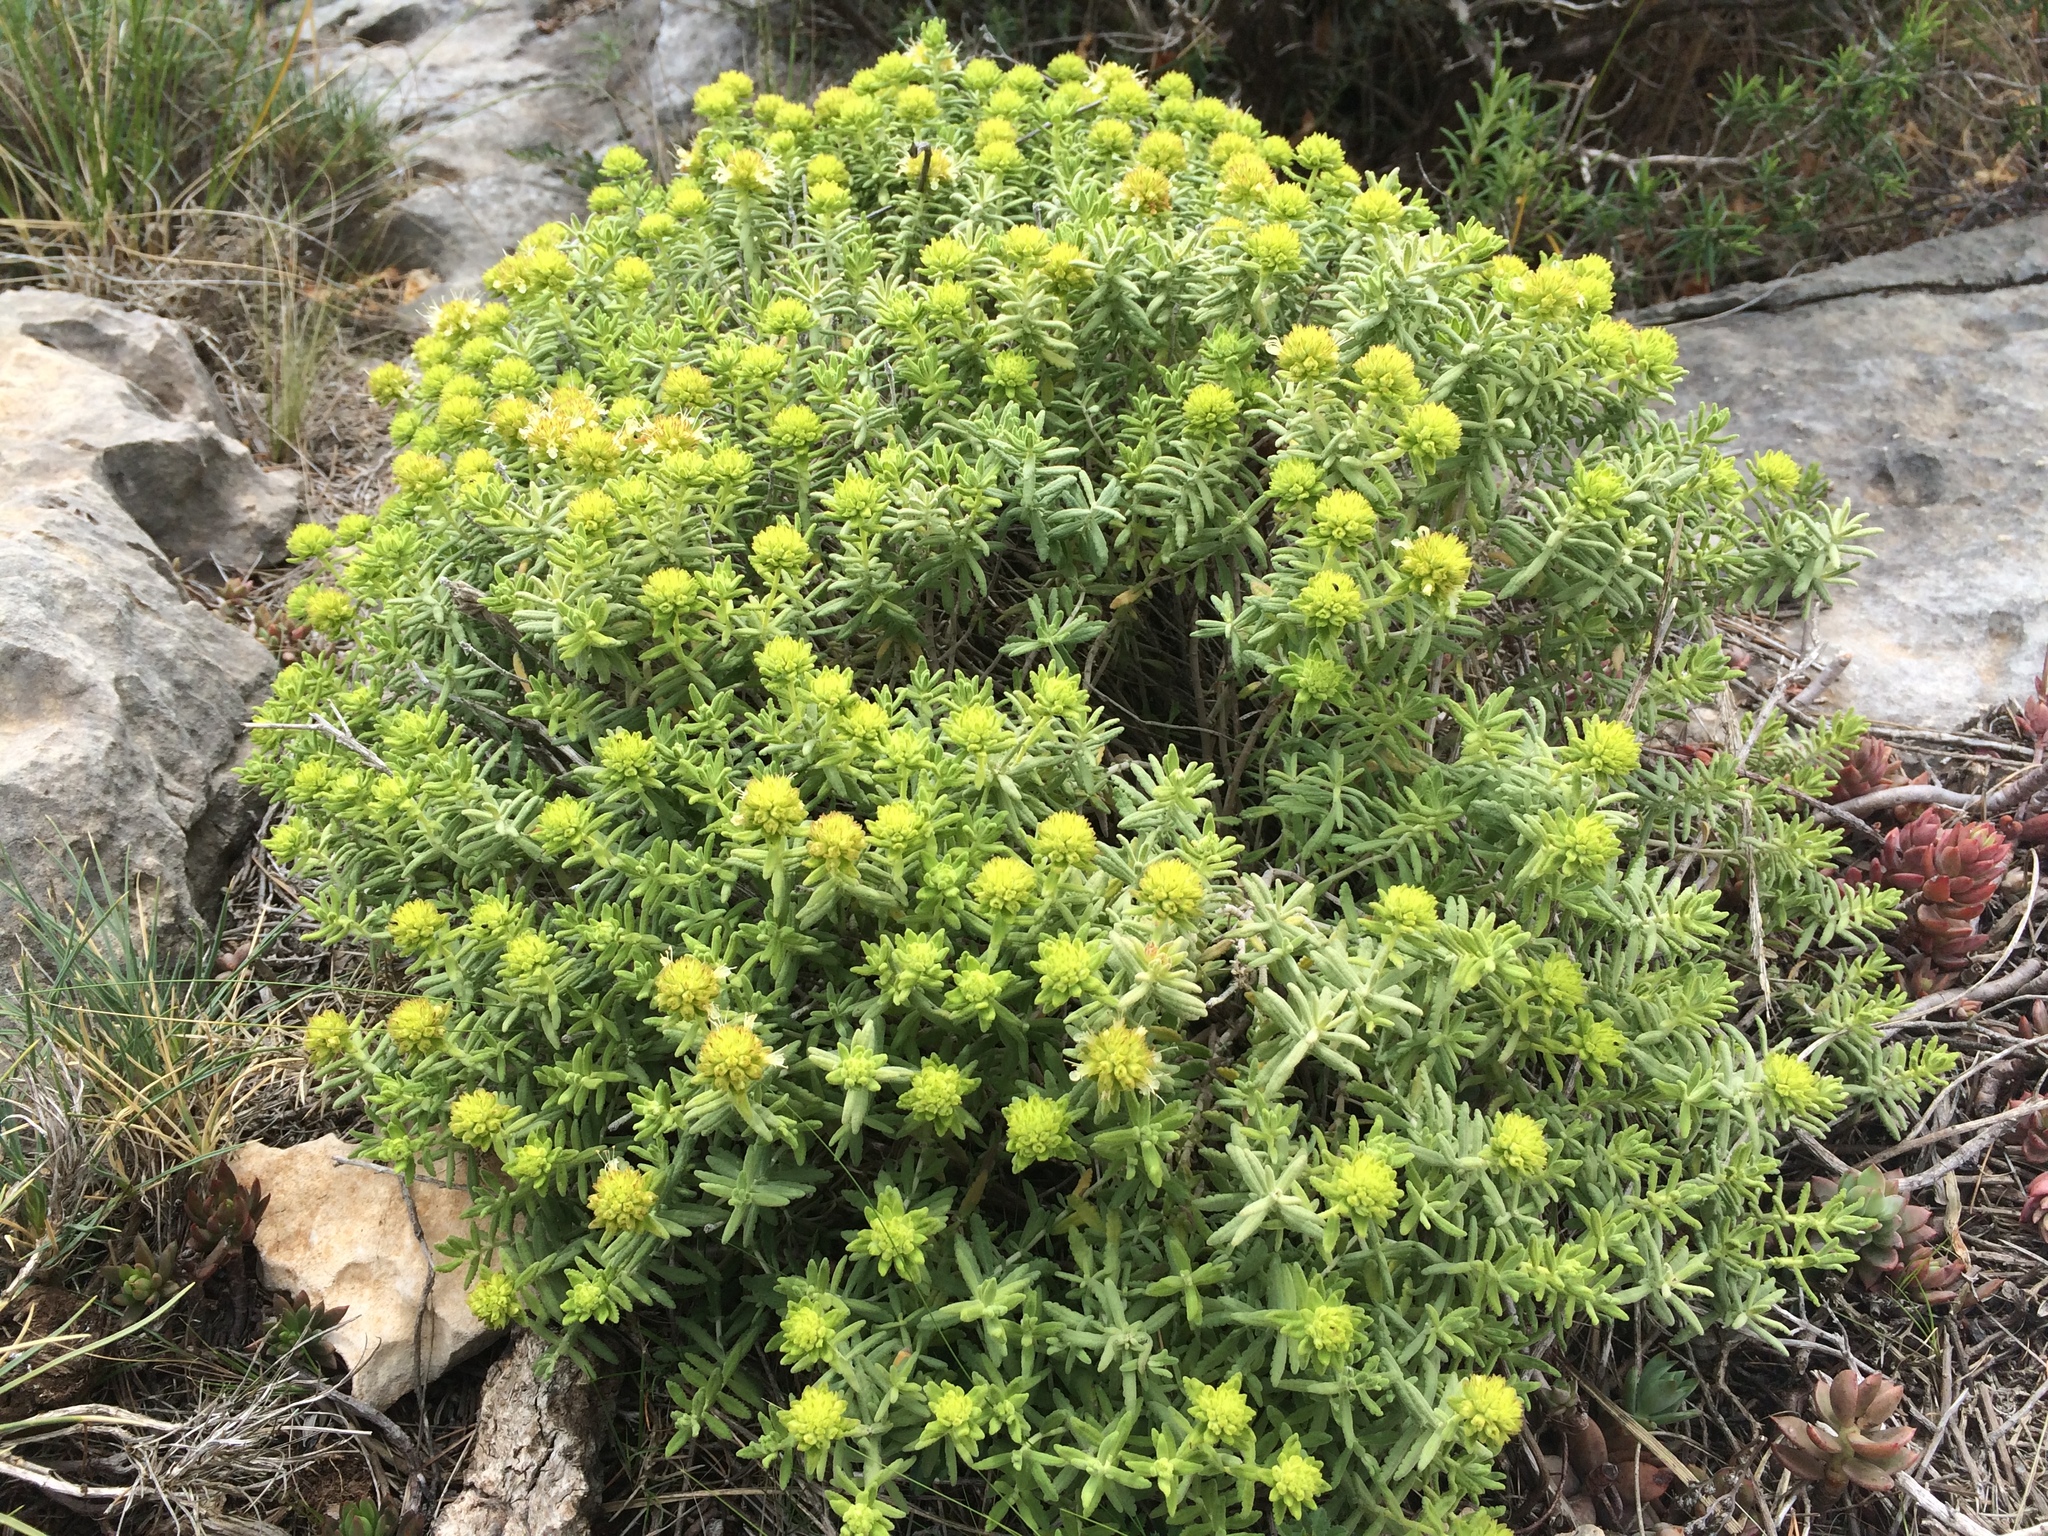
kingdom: Plantae
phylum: Tracheophyta
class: Magnoliopsida
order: Lamiales
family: Lamiaceae
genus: Teucrium
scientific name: Teucrium ronnigeri
